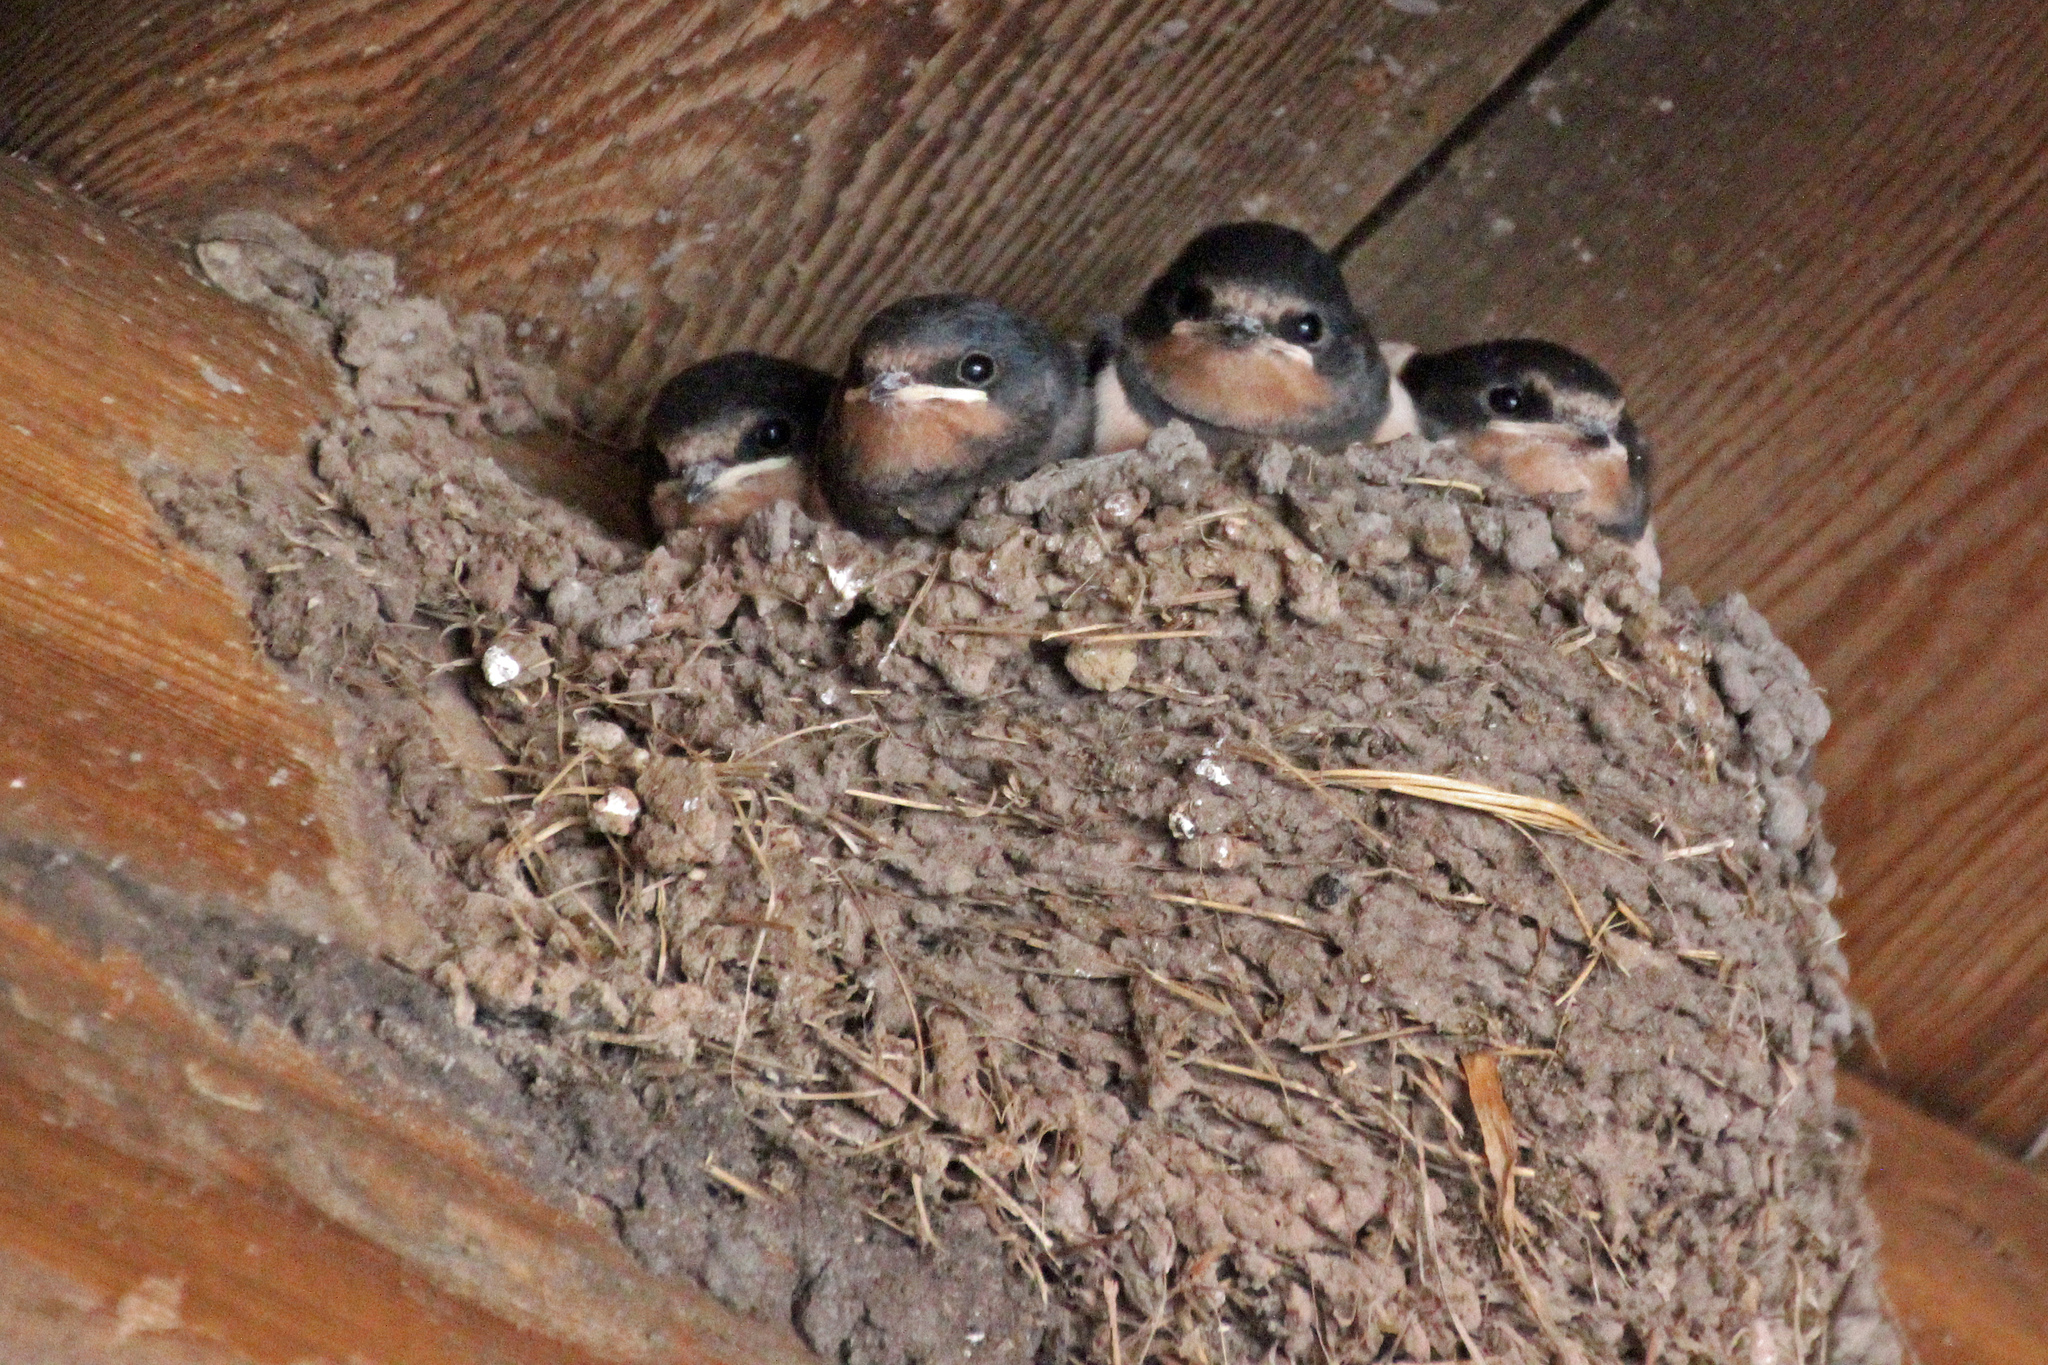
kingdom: Animalia
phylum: Chordata
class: Aves
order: Passeriformes
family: Hirundinidae
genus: Hirundo
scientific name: Hirundo rustica
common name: Barn swallow
